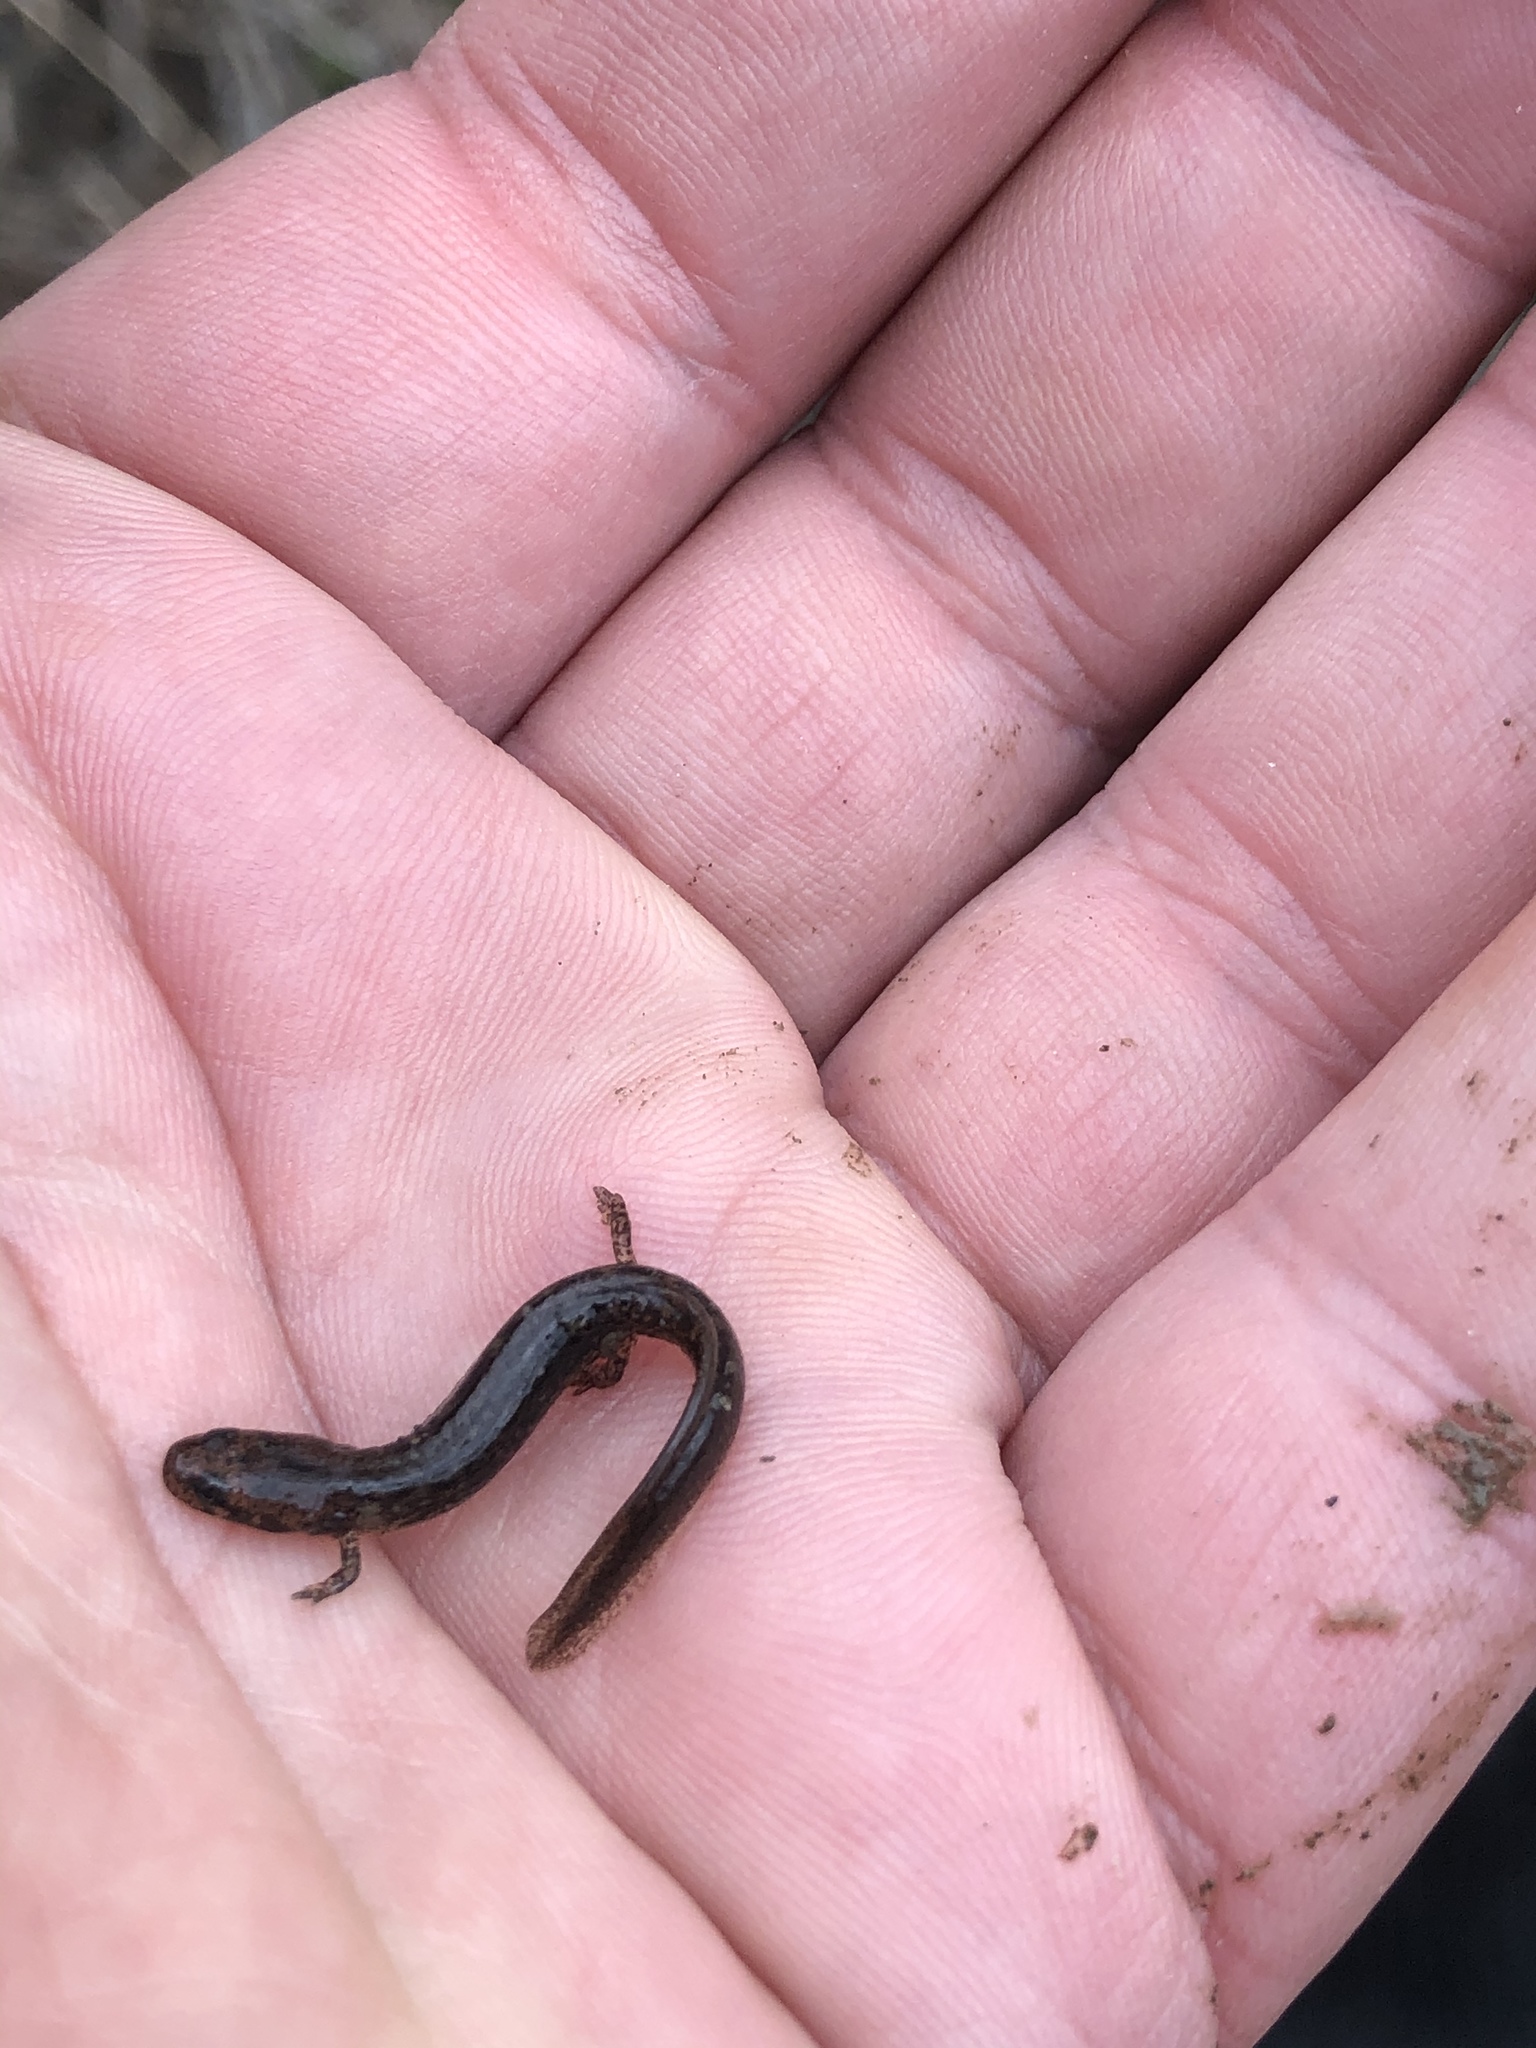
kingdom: Animalia
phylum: Chordata
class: Amphibia
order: Caudata
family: Plethodontidae
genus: Eurycea
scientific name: Eurycea bislineata
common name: Northern two-lined salamander
